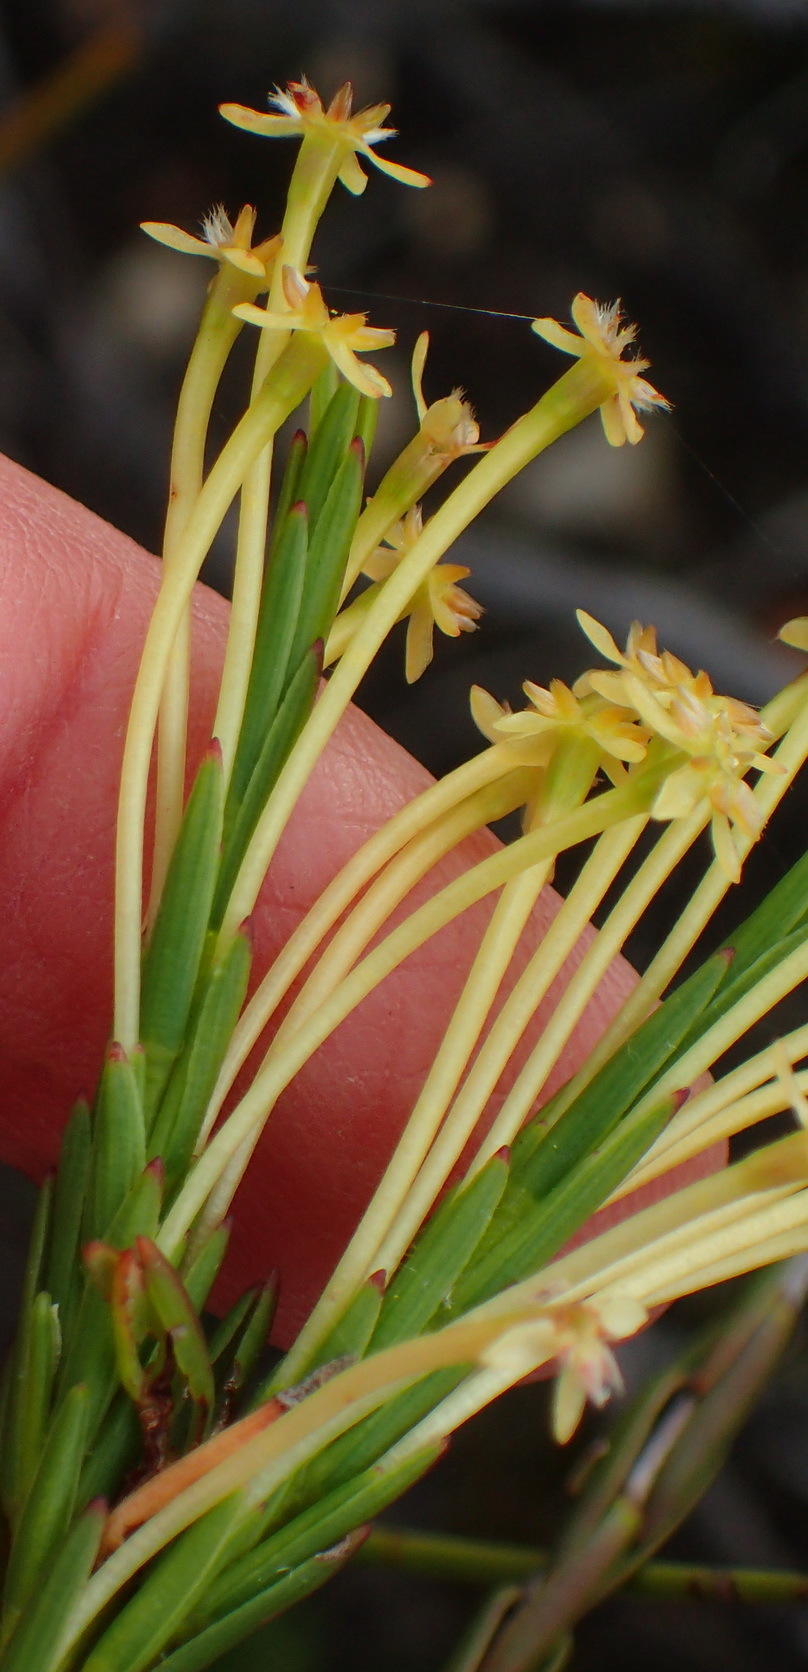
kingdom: Plantae
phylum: Tracheophyta
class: Magnoliopsida
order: Malvales
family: Thymelaeaceae
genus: Struthiola
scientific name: Struthiola macowanii
